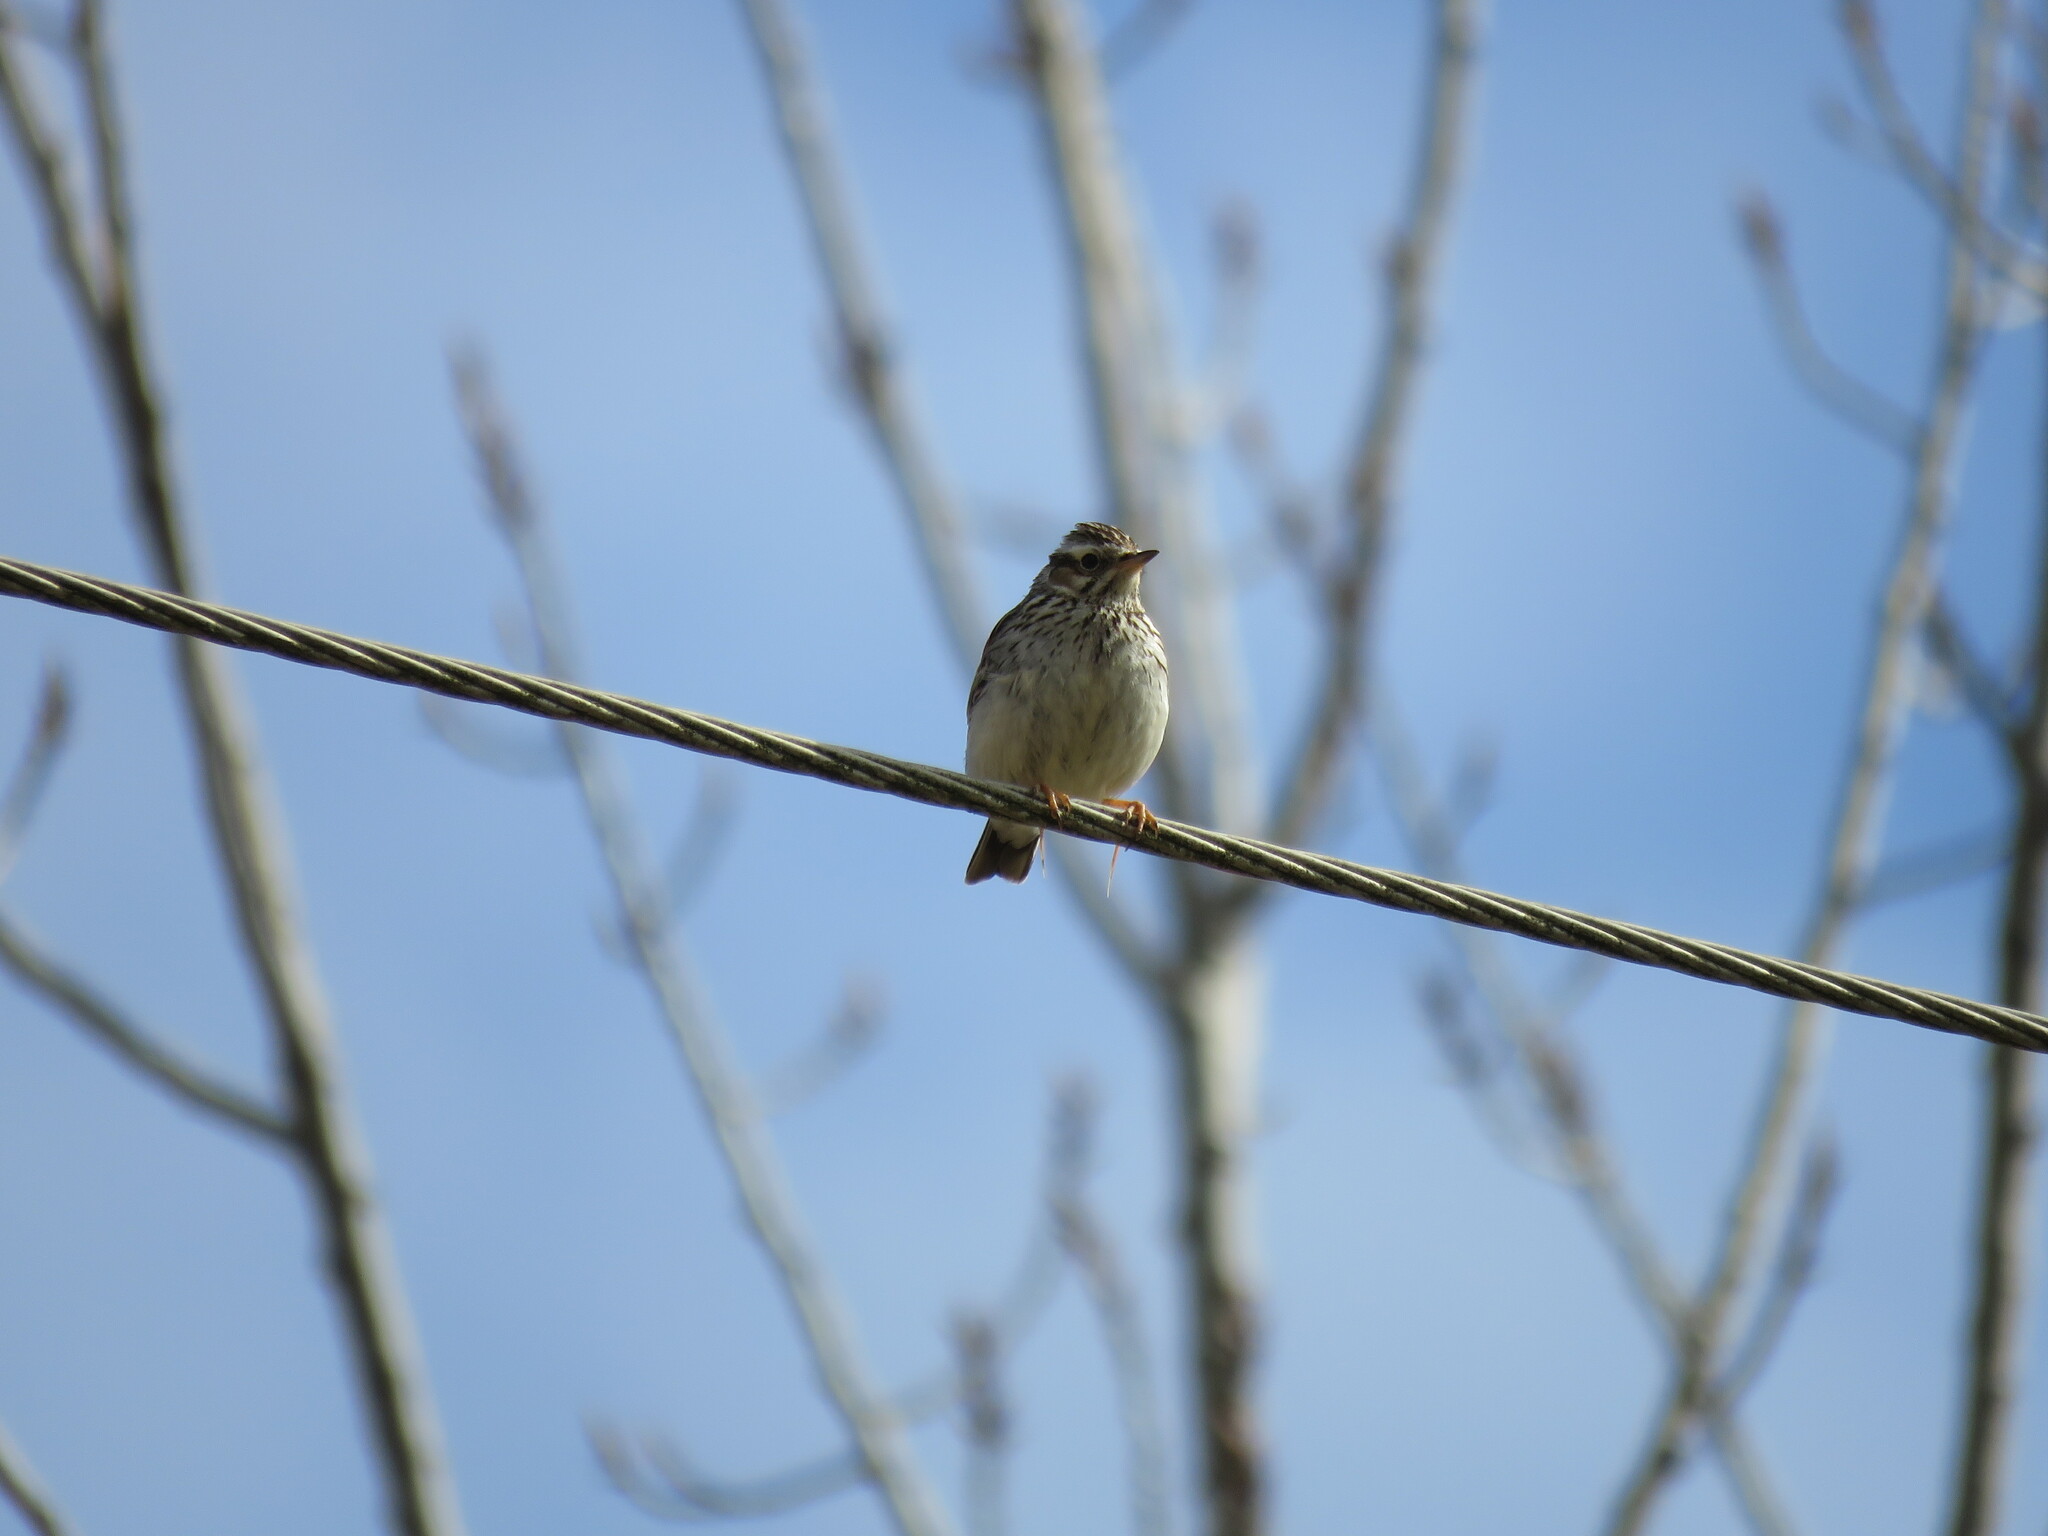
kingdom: Animalia
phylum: Chordata
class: Aves
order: Passeriformes
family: Alaudidae
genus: Lullula
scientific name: Lullula arborea
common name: Woodlark
